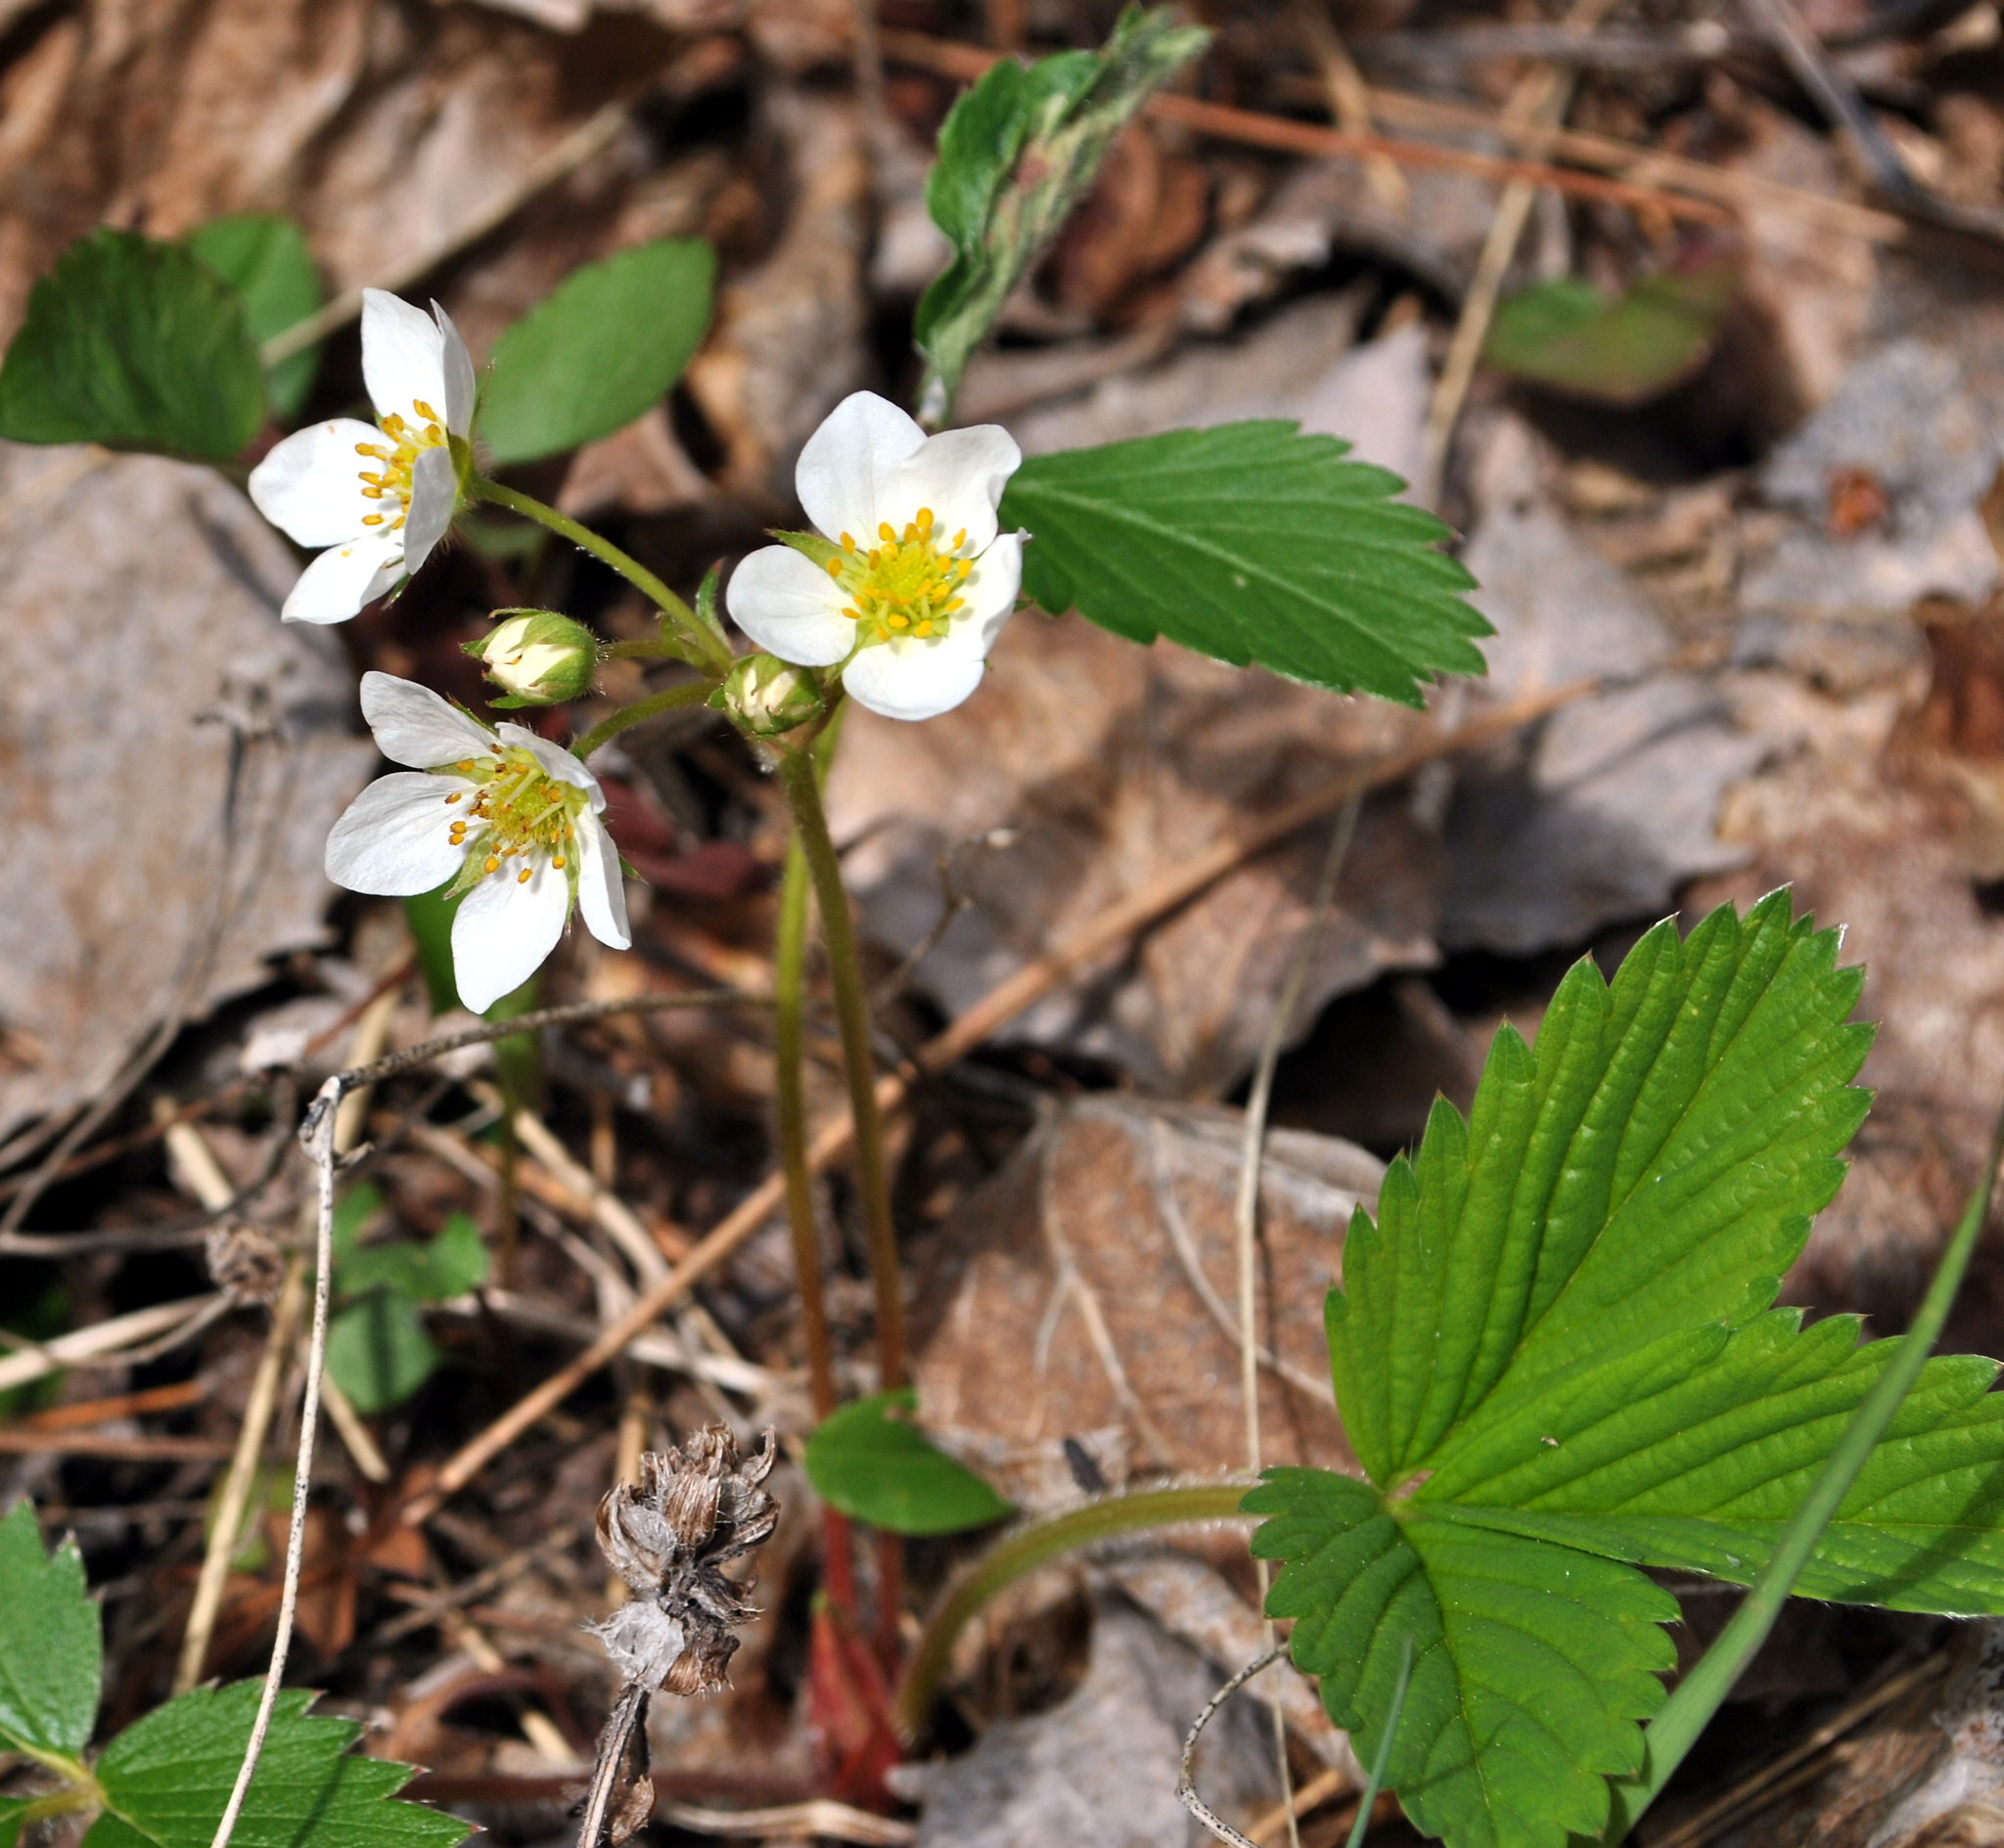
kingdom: Plantae
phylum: Tracheophyta
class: Magnoliopsida
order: Rosales
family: Rosaceae
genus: Fragaria
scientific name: Fragaria virginiana
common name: Thickleaved wild strawberry
